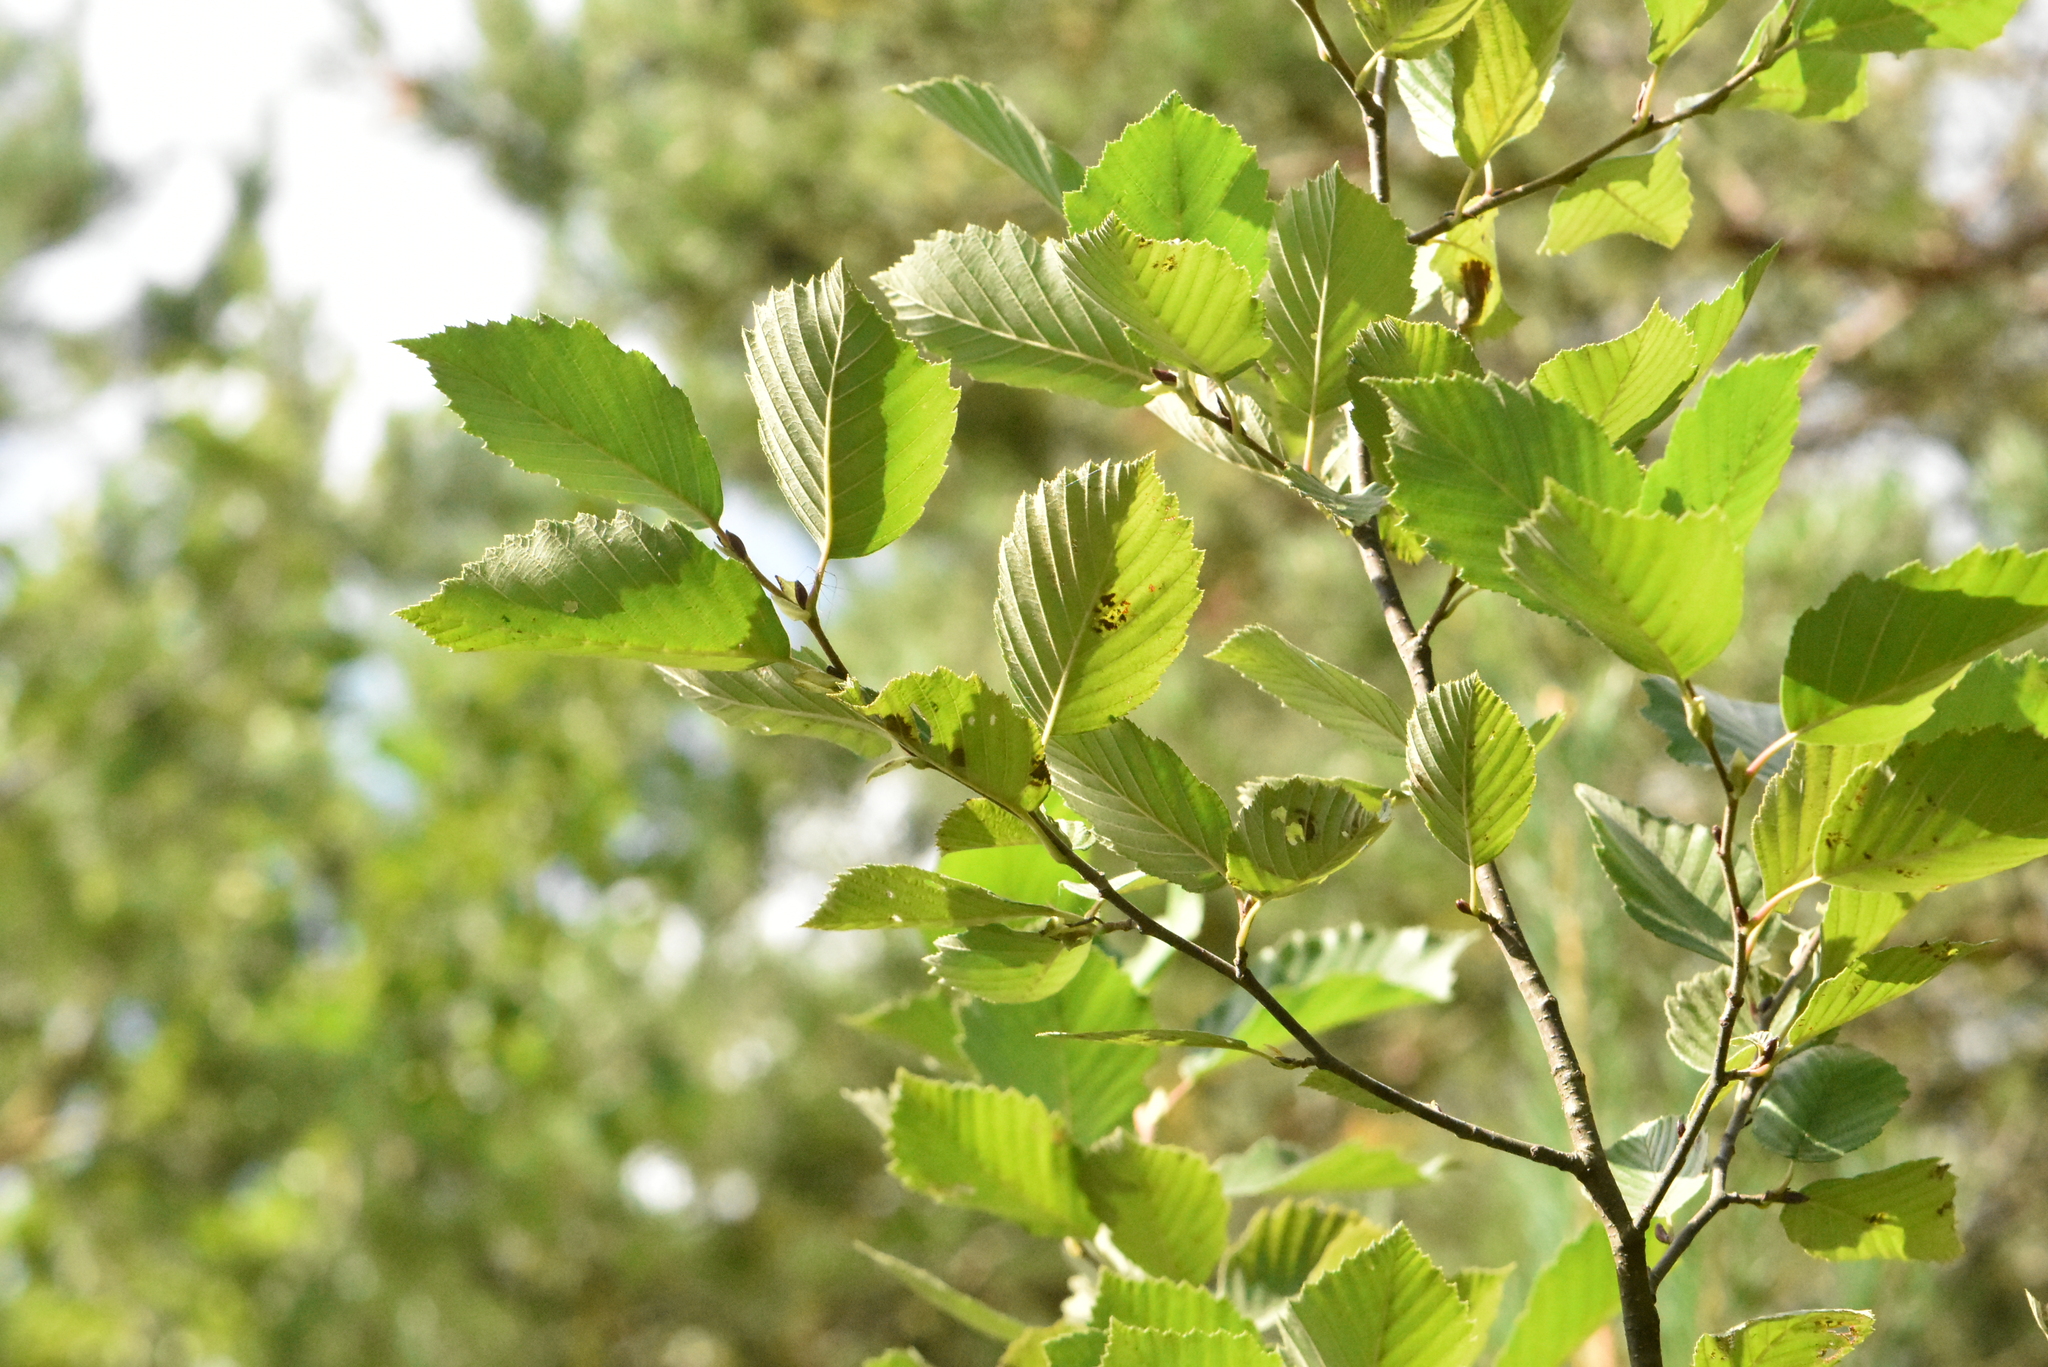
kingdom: Plantae
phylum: Tracheophyta
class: Magnoliopsida
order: Fagales
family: Betulaceae
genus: Alnus
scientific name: Alnus incana
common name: Grey alder
